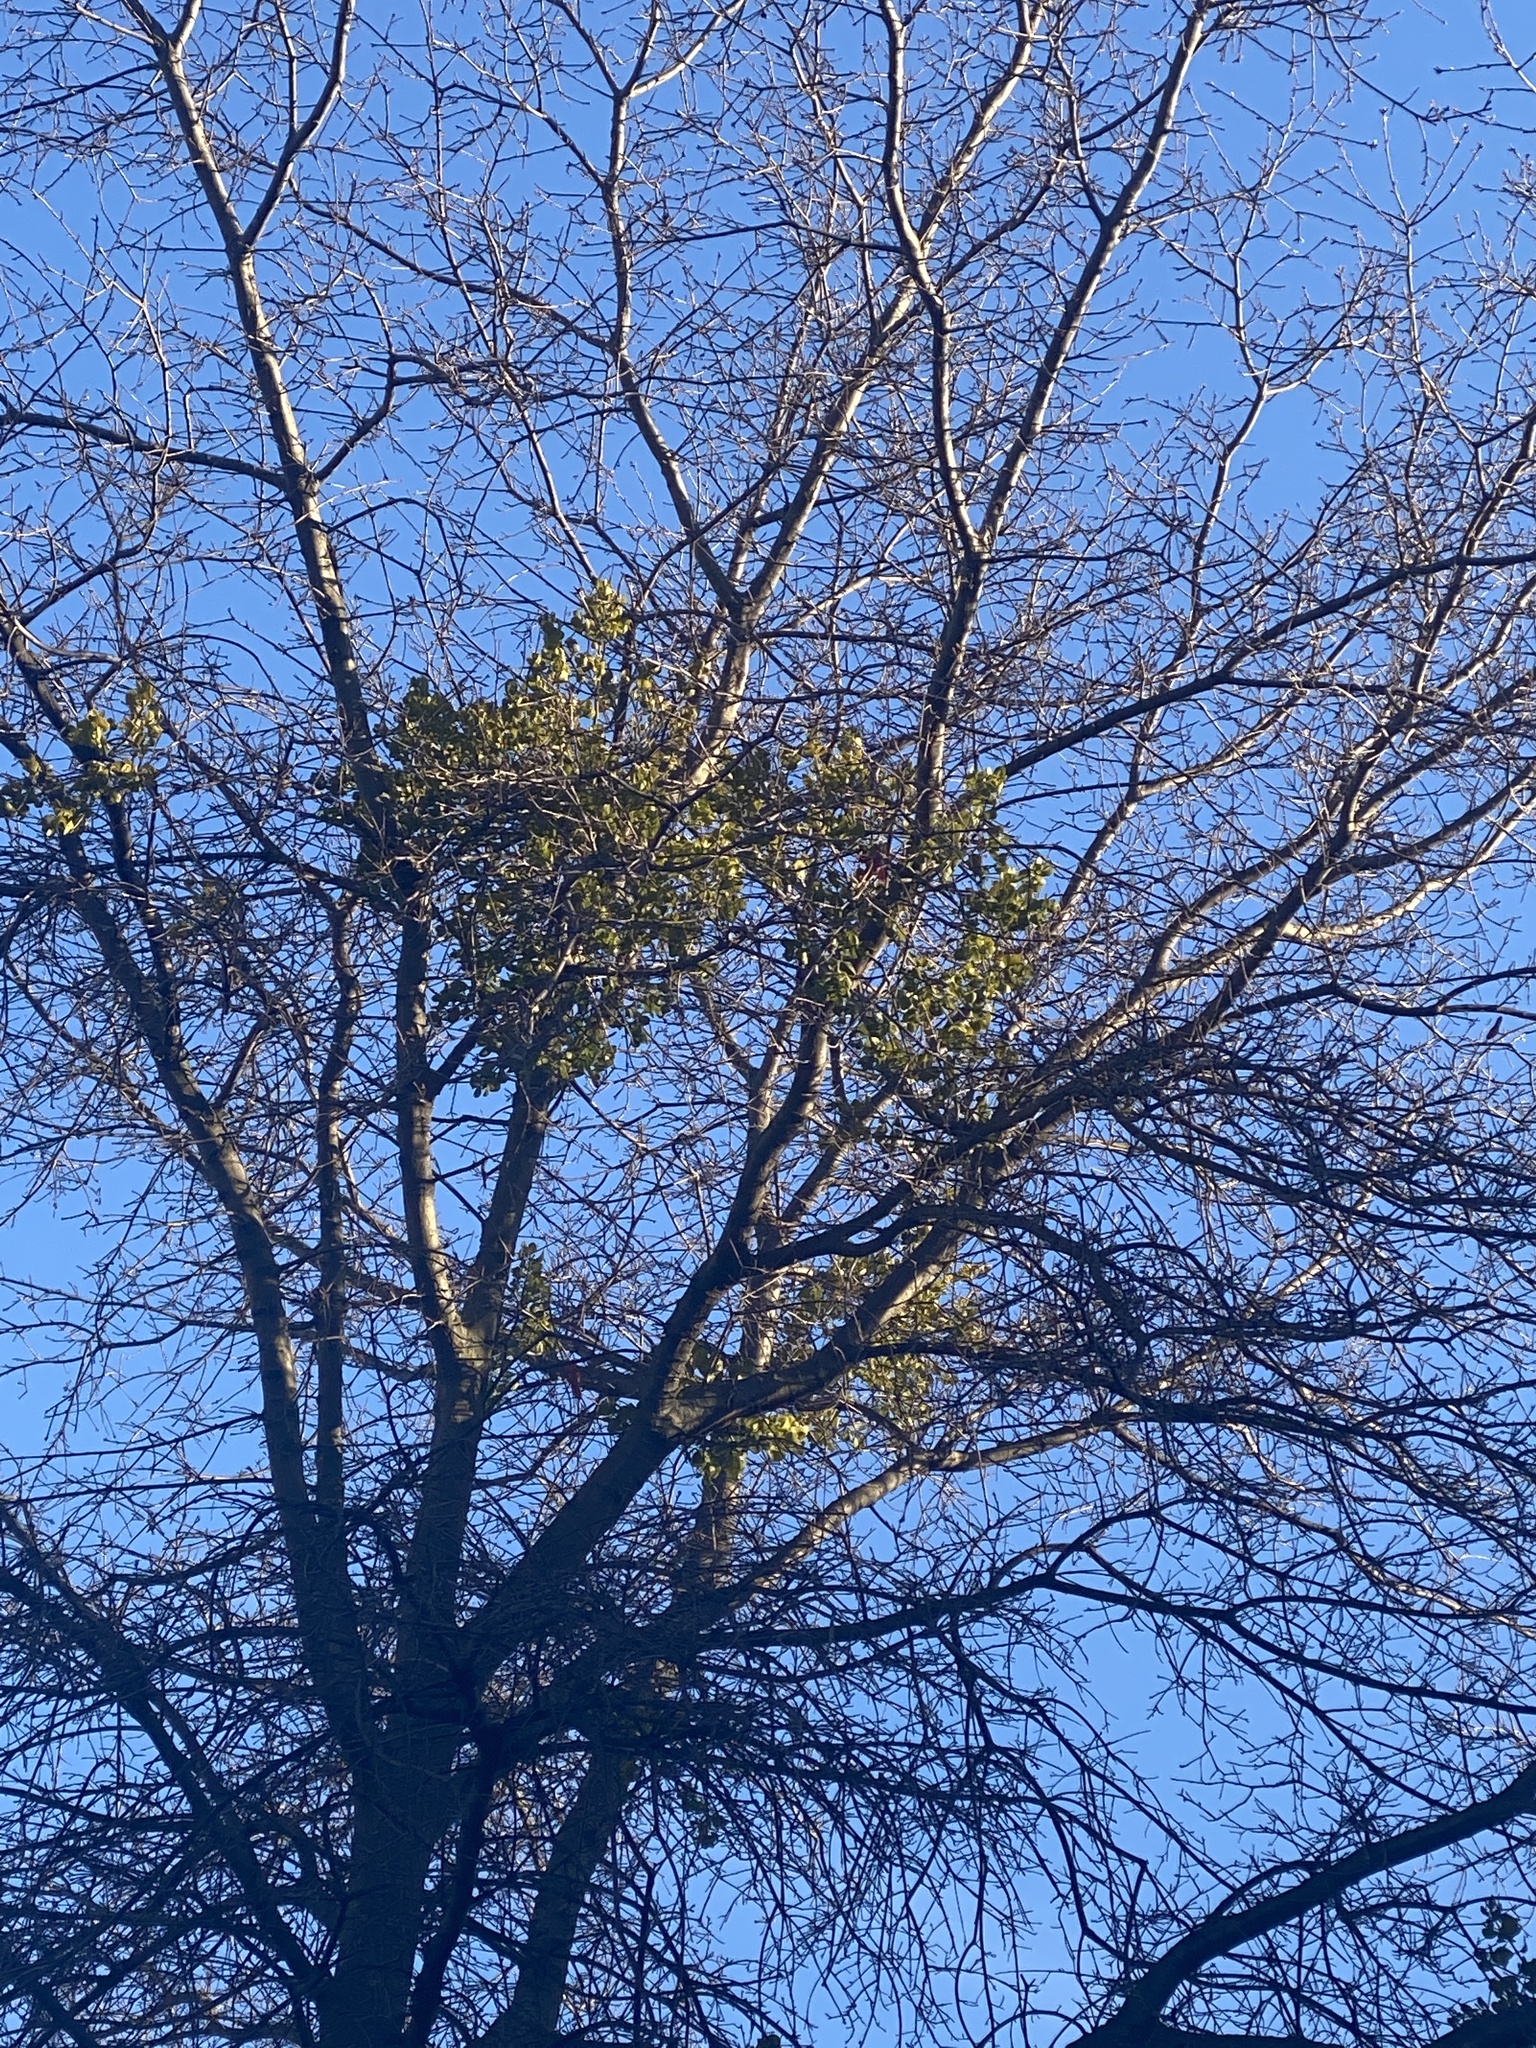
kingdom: Plantae
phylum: Tracheophyta
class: Magnoliopsida
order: Santalales
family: Viscaceae
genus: Phoradendron
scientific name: Phoradendron leucarpum
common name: Pacific mistletoe
